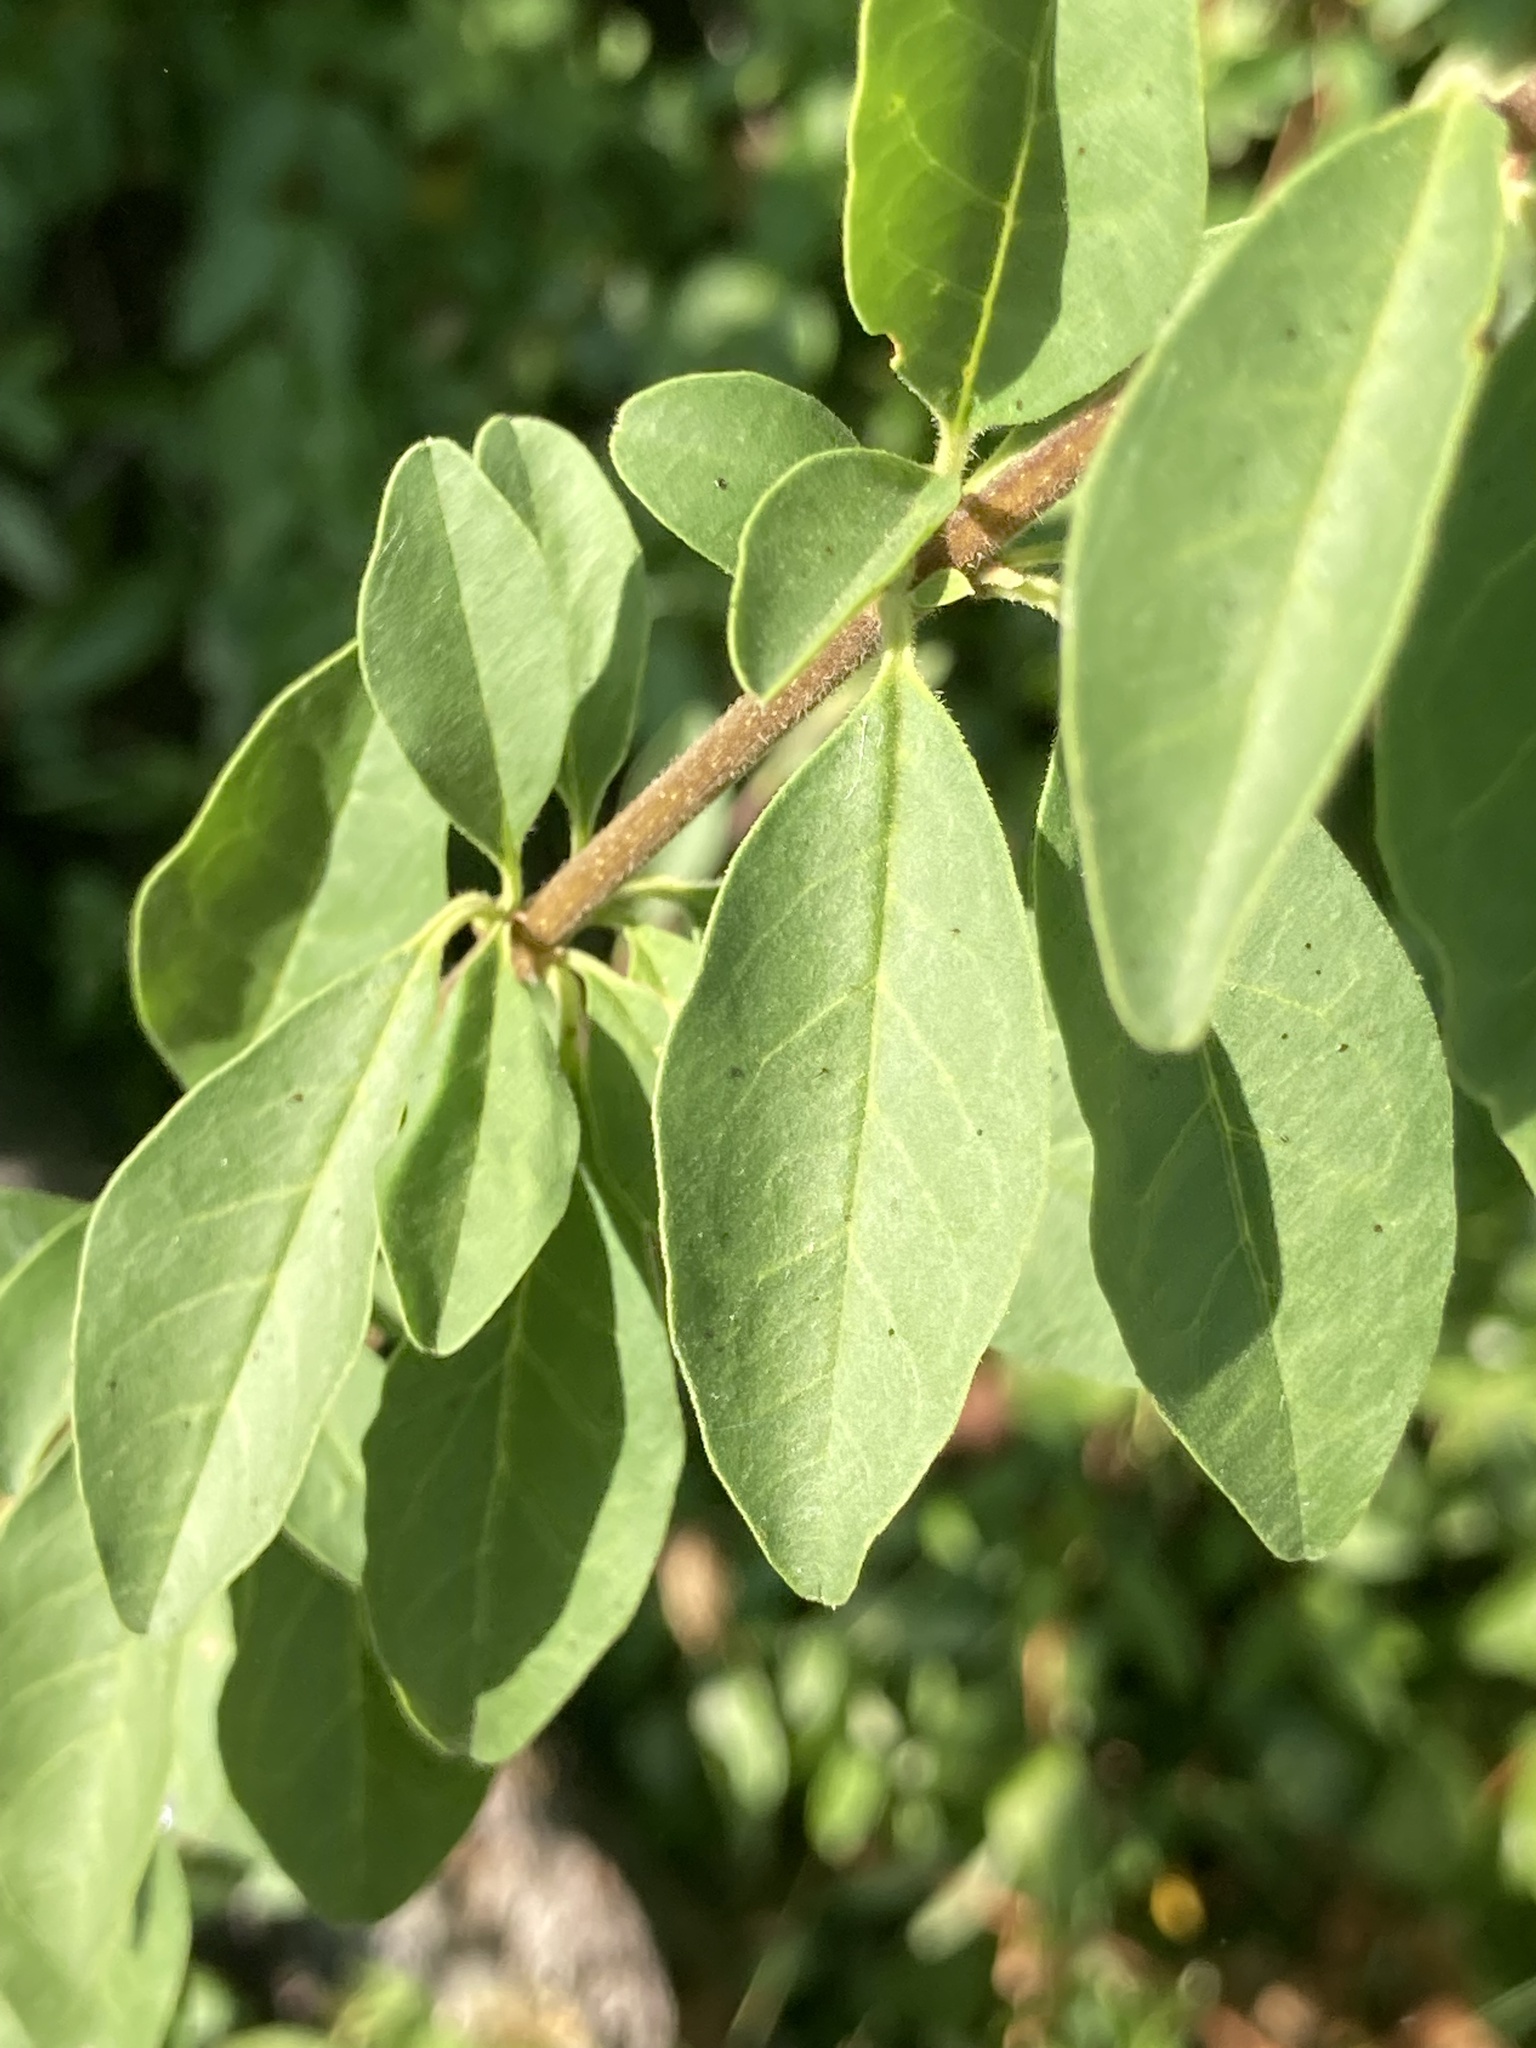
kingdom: Plantae
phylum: Tracheophyta
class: Magnoliopsida
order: Dipsacales
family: Caprifoliaceae
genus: Lonicera
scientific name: Lonicera japonica
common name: Japanese honeysuckle
